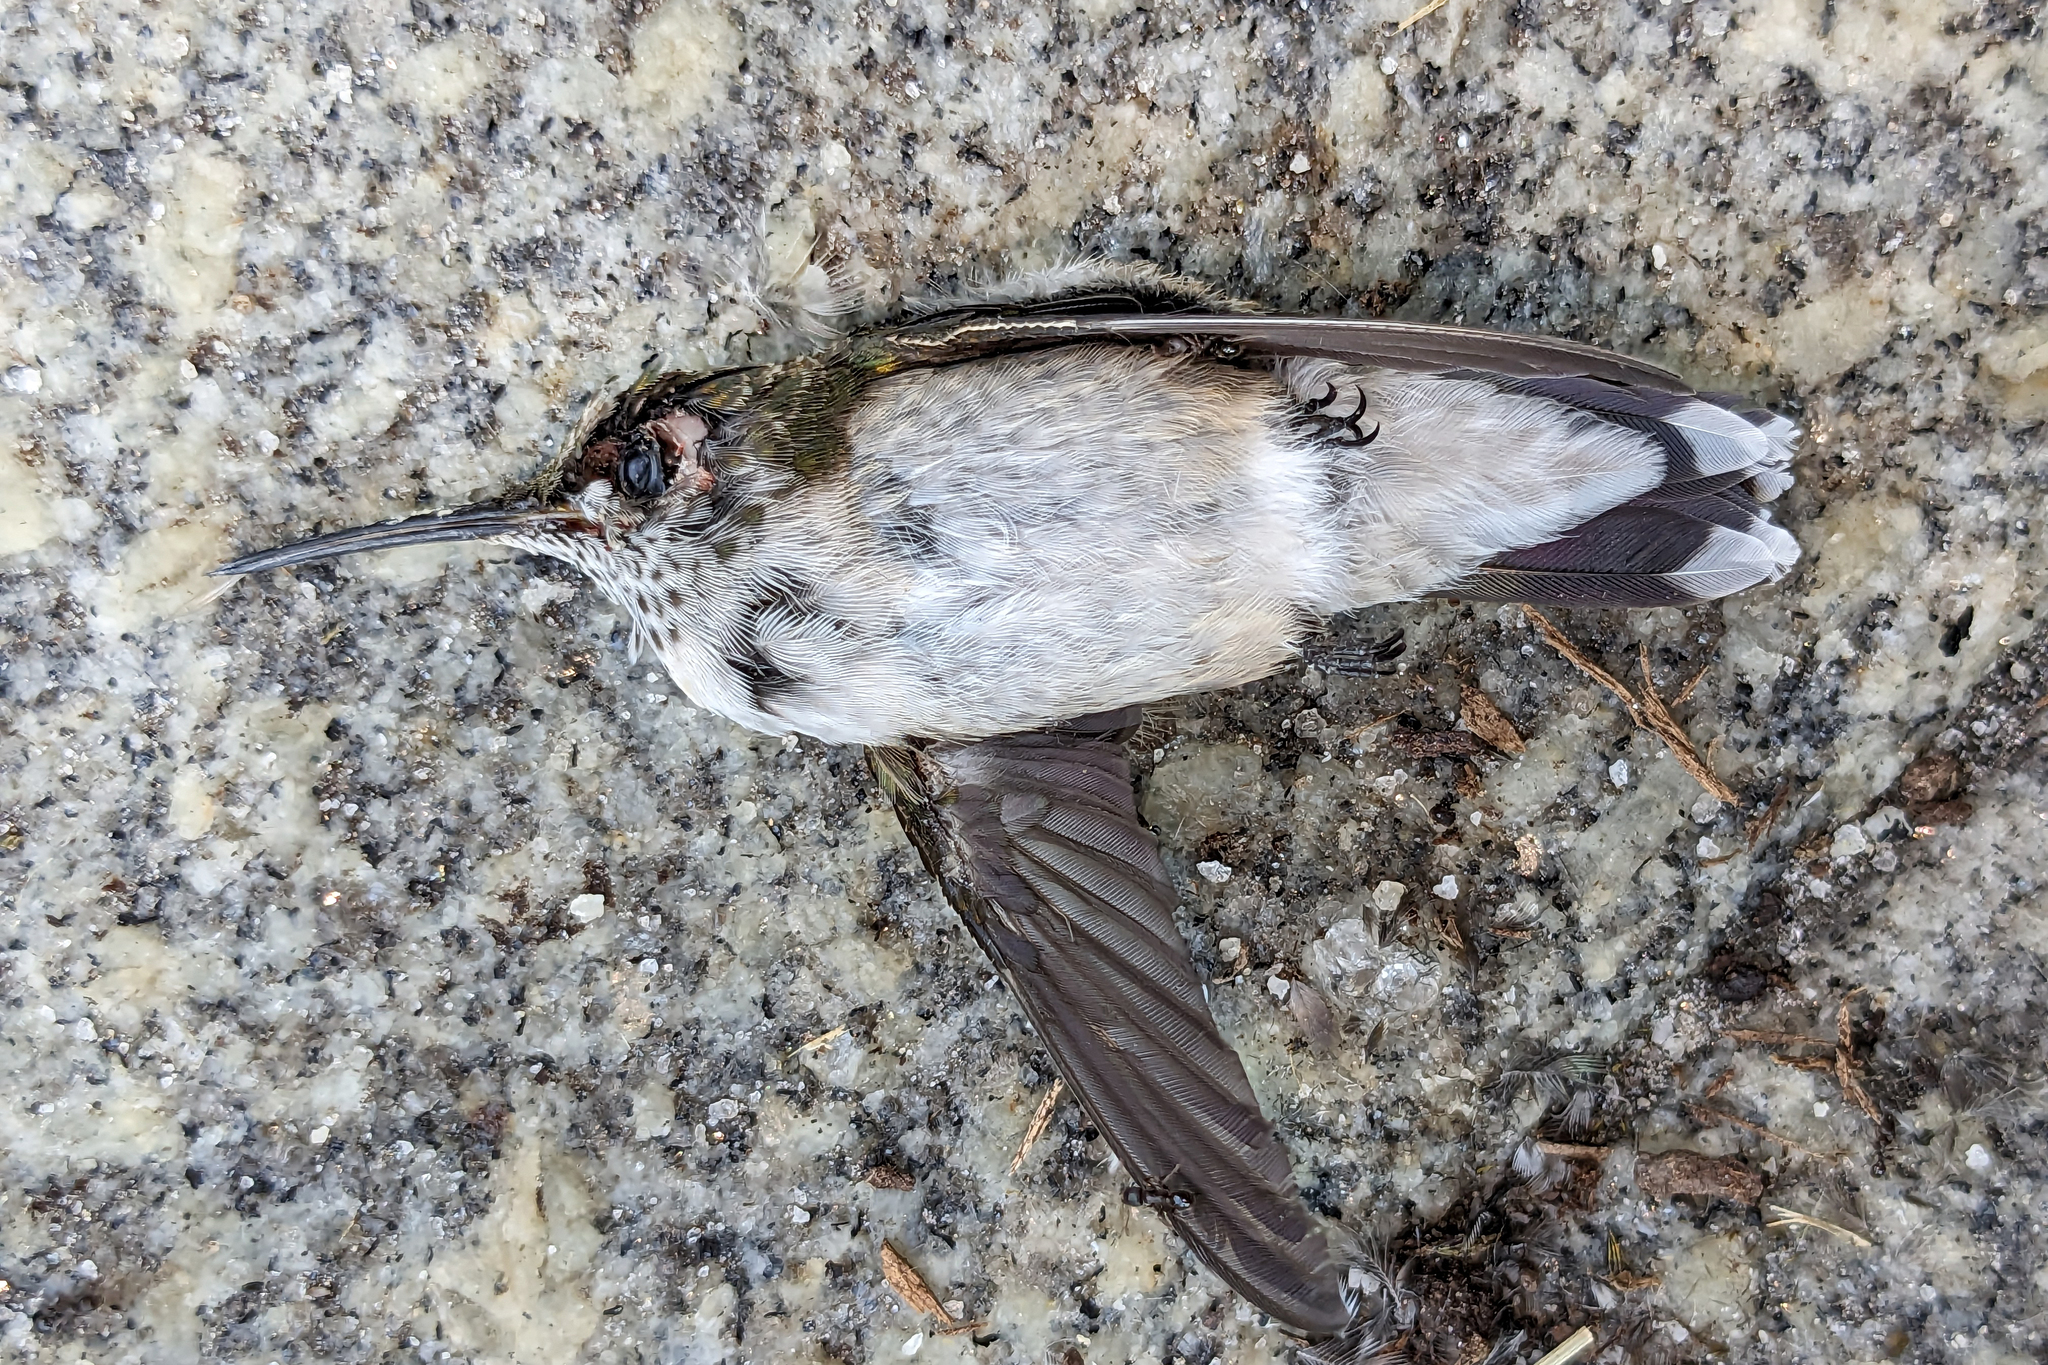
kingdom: Animalia
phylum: Chordata
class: Aves
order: Apodiformes
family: Trochilidae
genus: Archilochus
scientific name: Archilochus colubris
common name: Ruby-throated hummingbird
